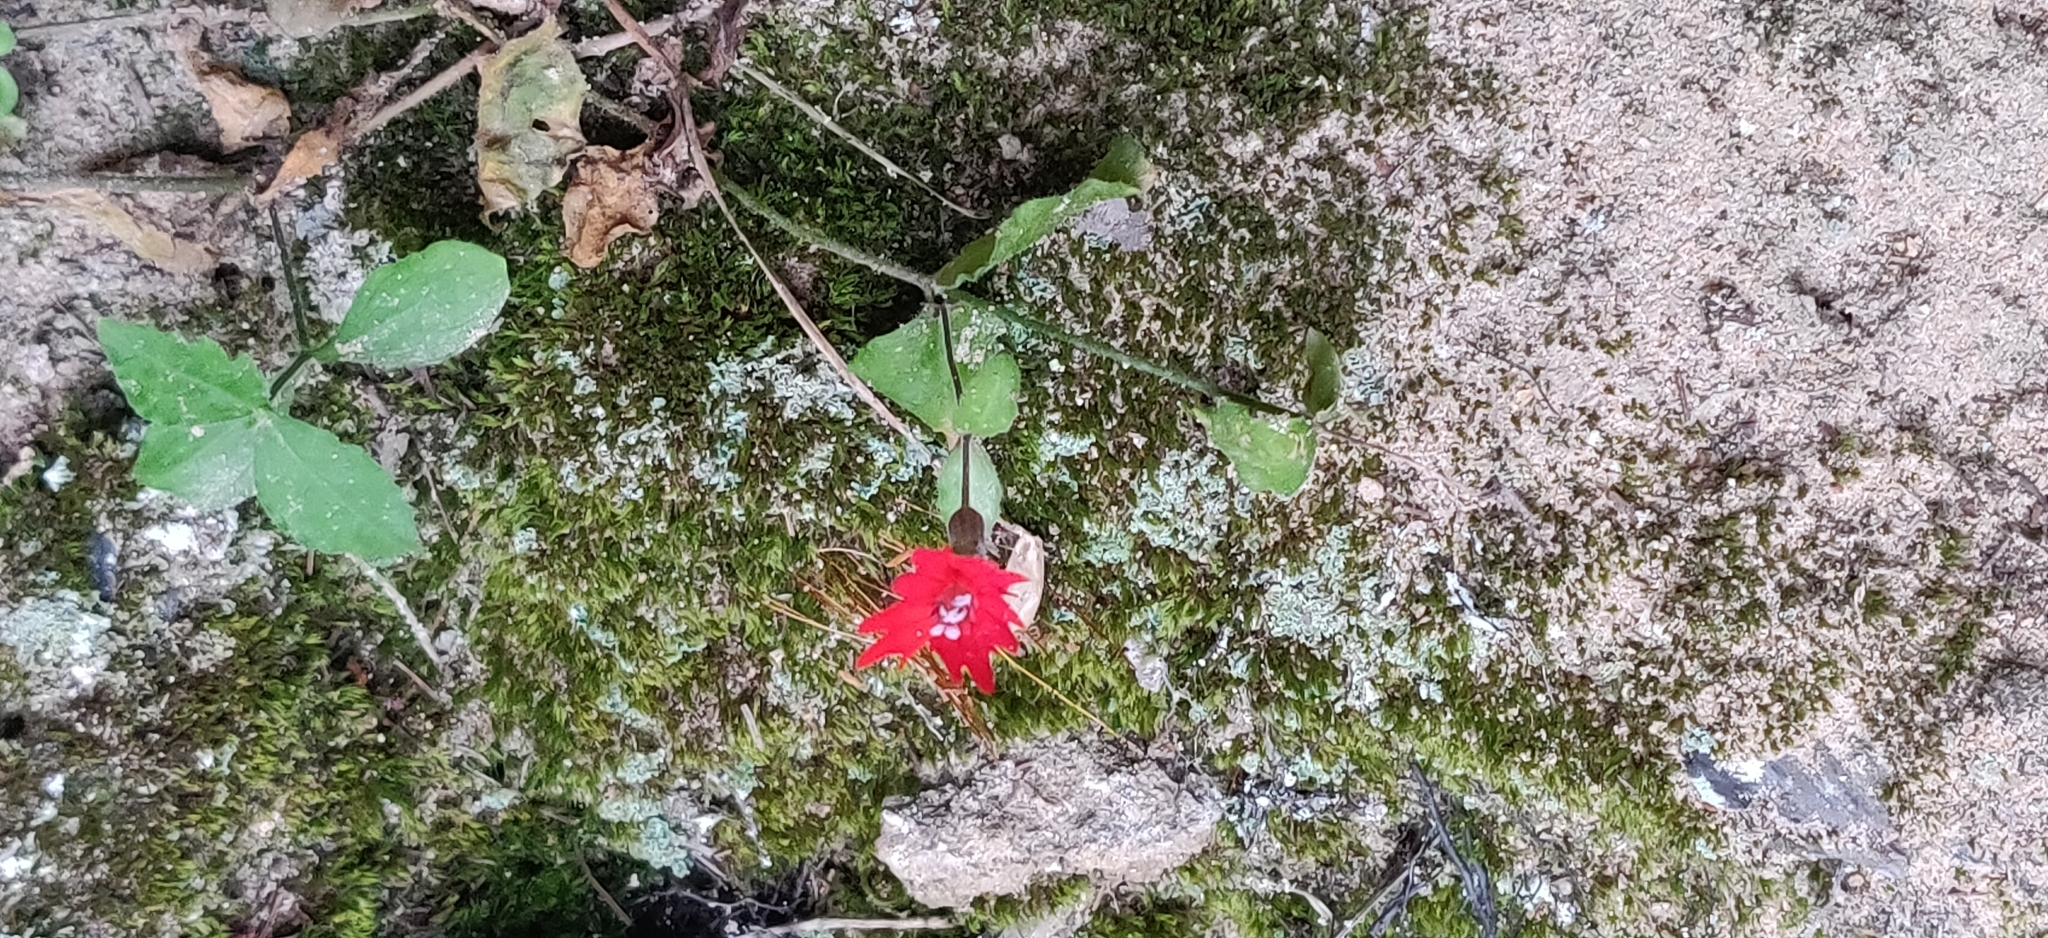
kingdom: Plantae
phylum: Tracheophyta
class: Magnoliopsida
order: Caryophyllales
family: Caryophyllaceae
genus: Silene
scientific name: Silene rotundifolia
